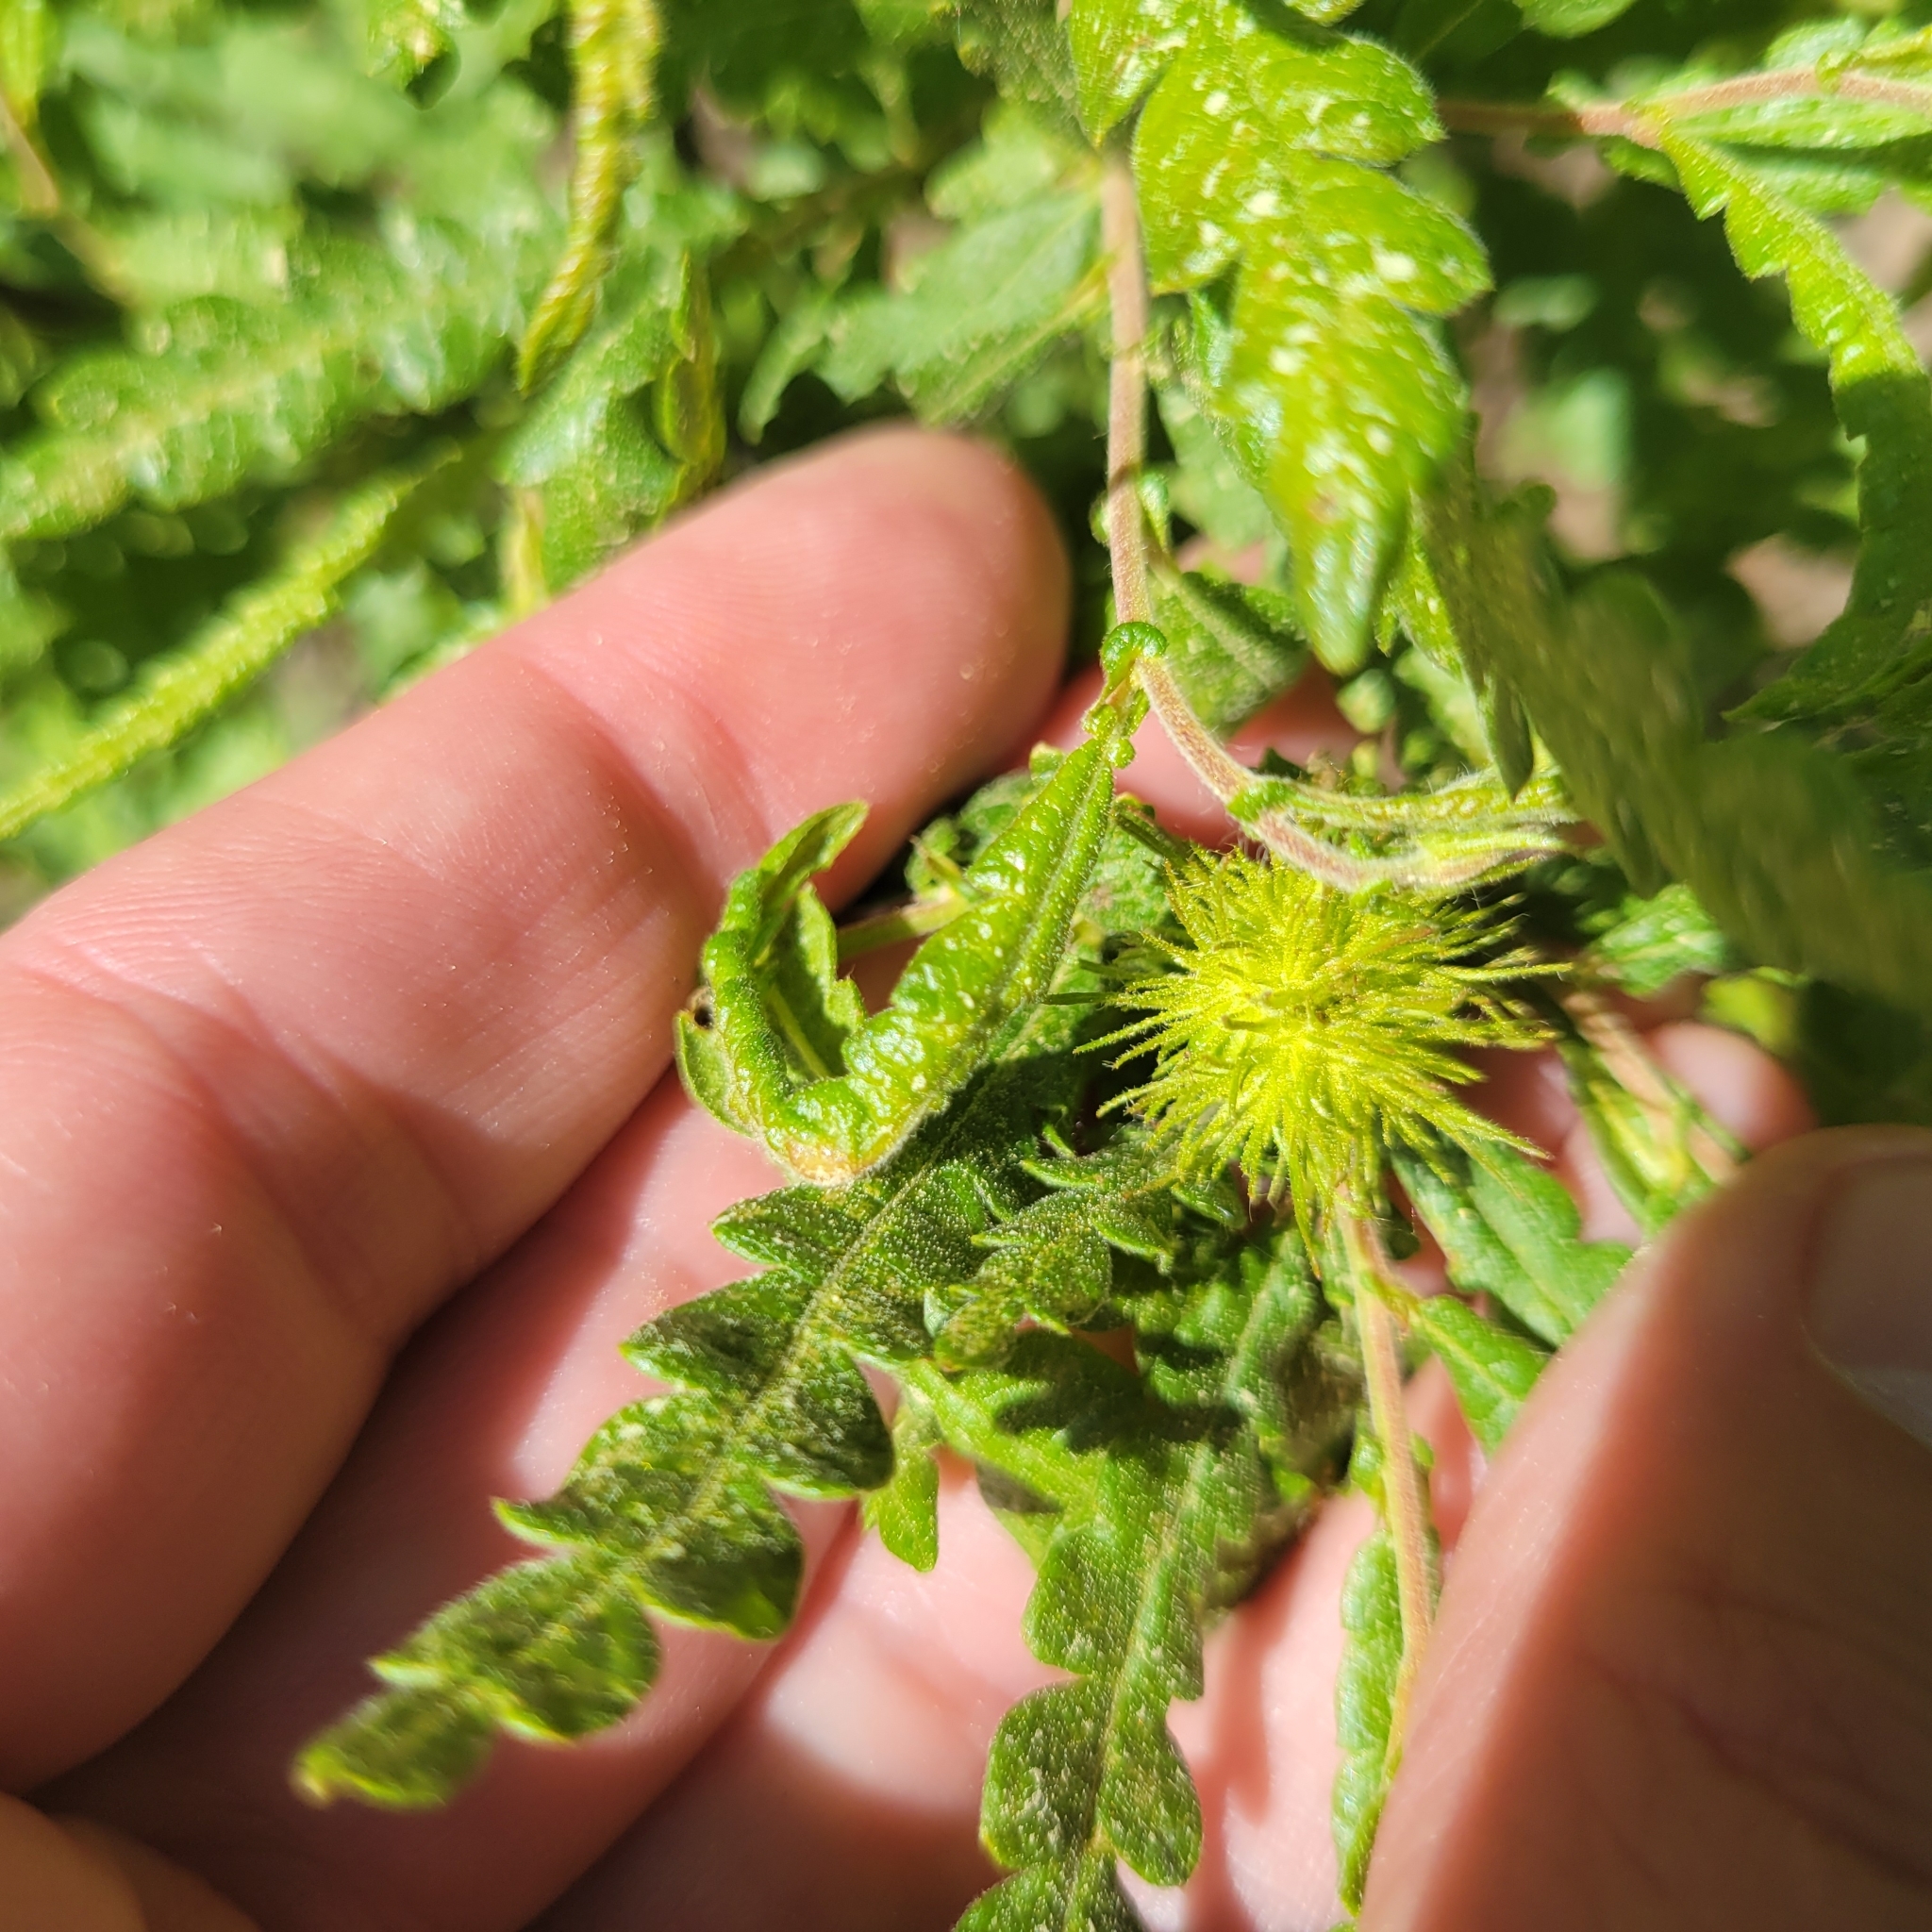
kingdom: Plantae
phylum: Tracheophyta
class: Magnoliopsida
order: Fagales
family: Myricaceae
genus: Comptonia
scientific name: Comptonia peregrina
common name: Sweet-fern
